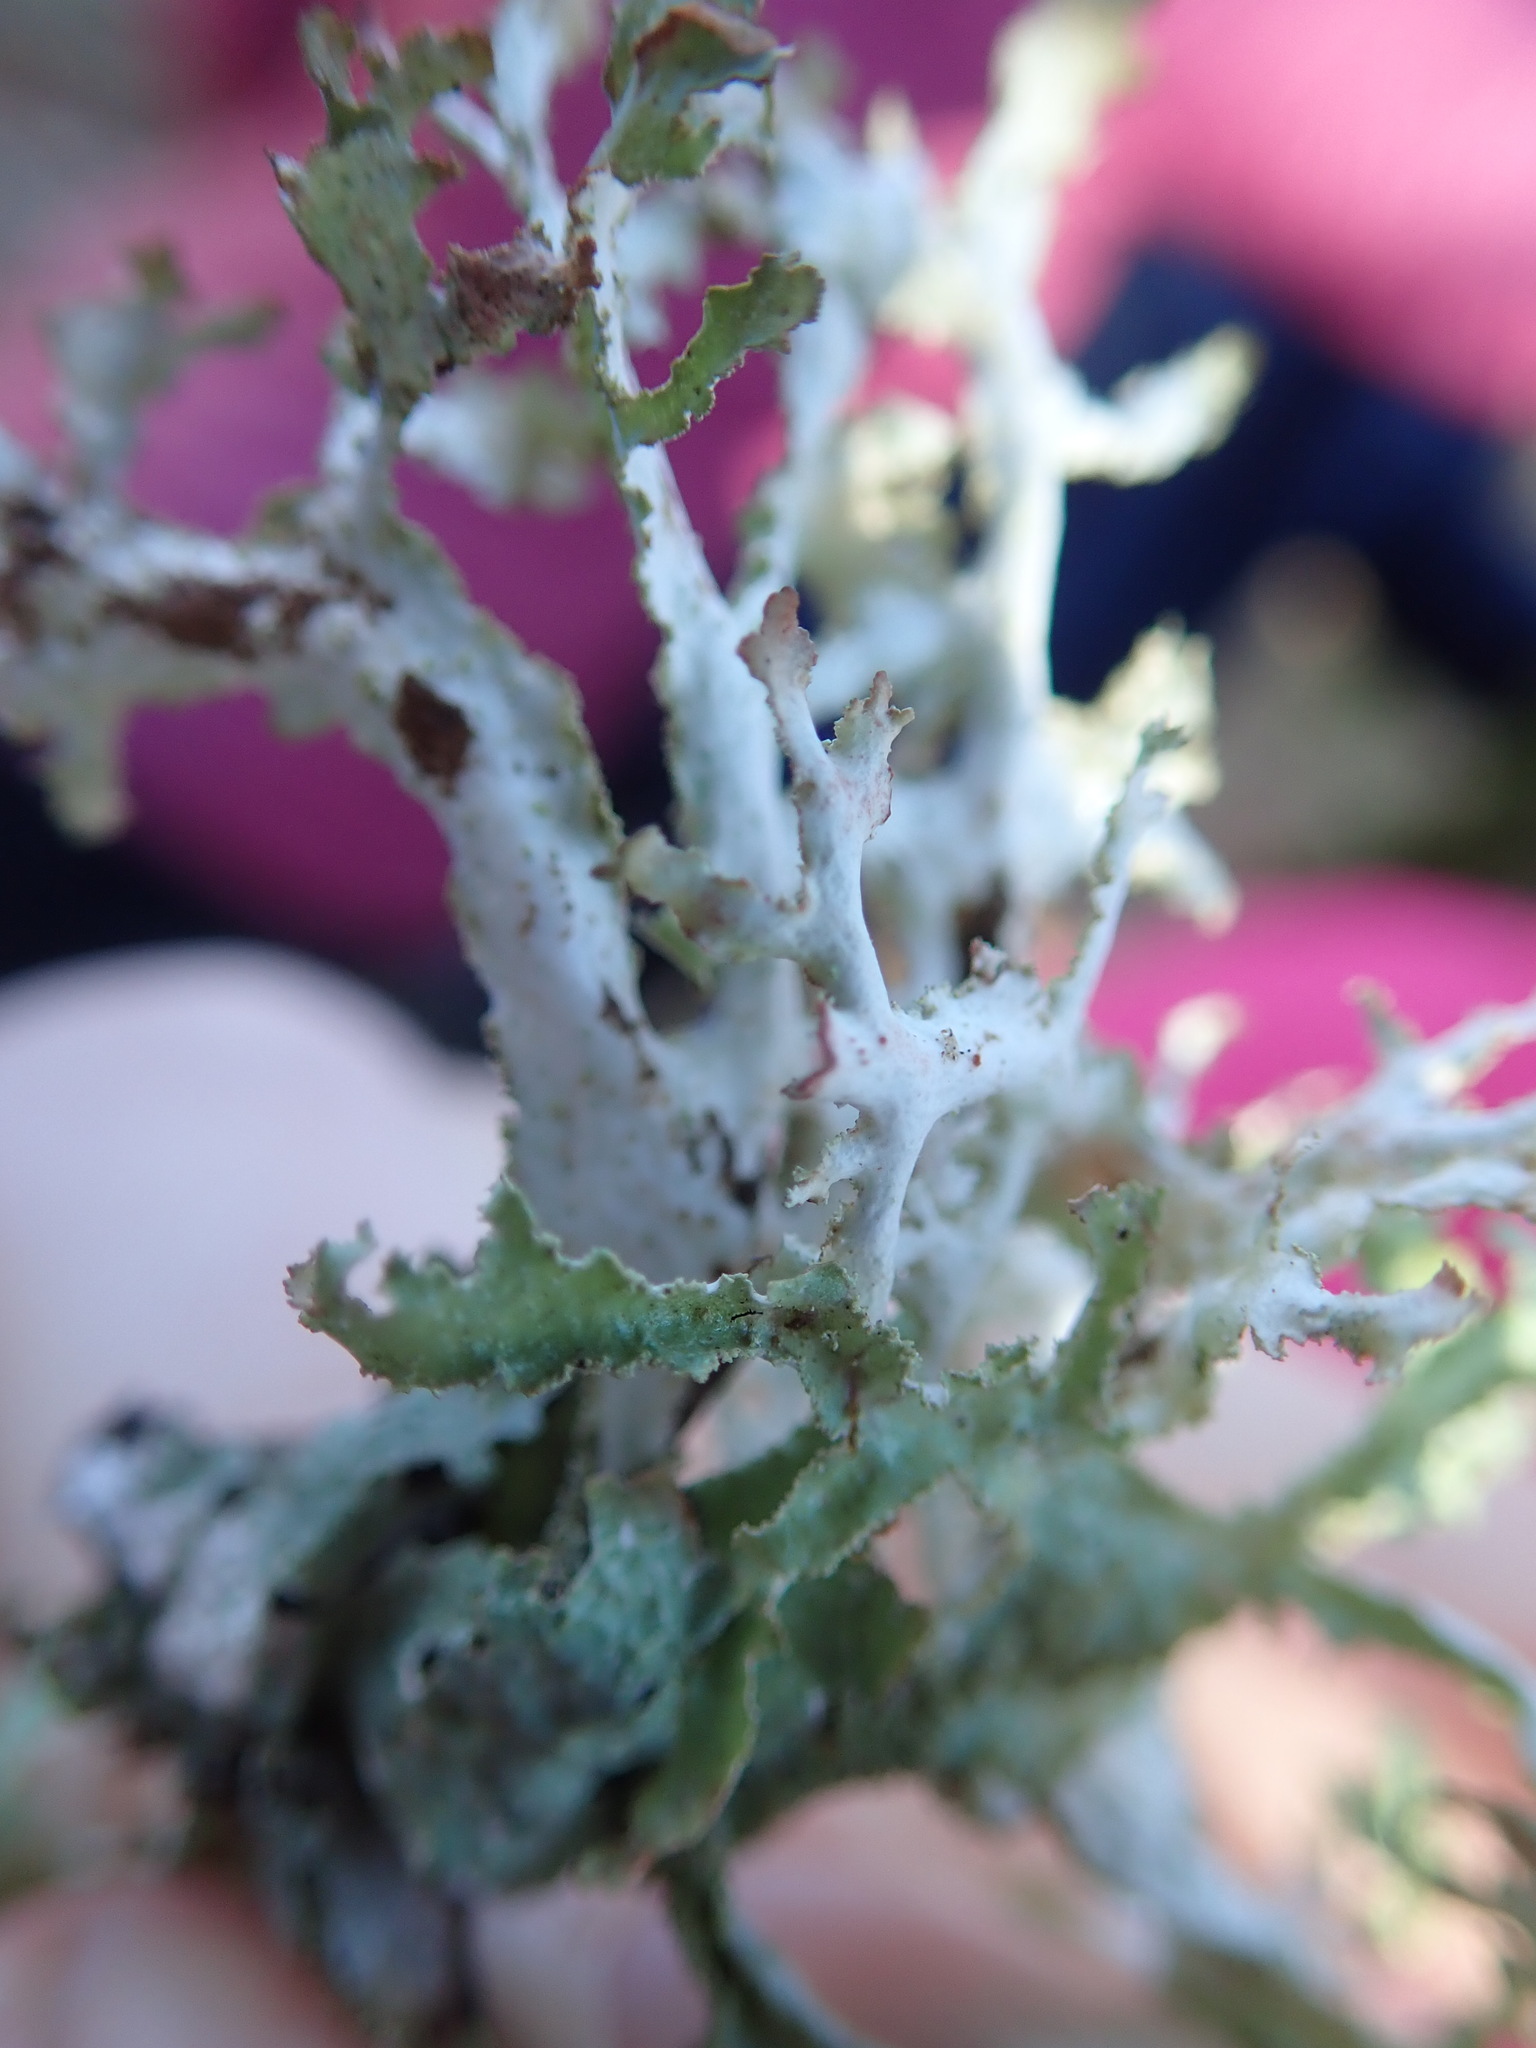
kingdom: Fungi
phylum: Ascomycota
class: Lecanoromycetes
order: Lecanorales
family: Parmeliaceae
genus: Platismatia
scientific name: Platismatia herrei
